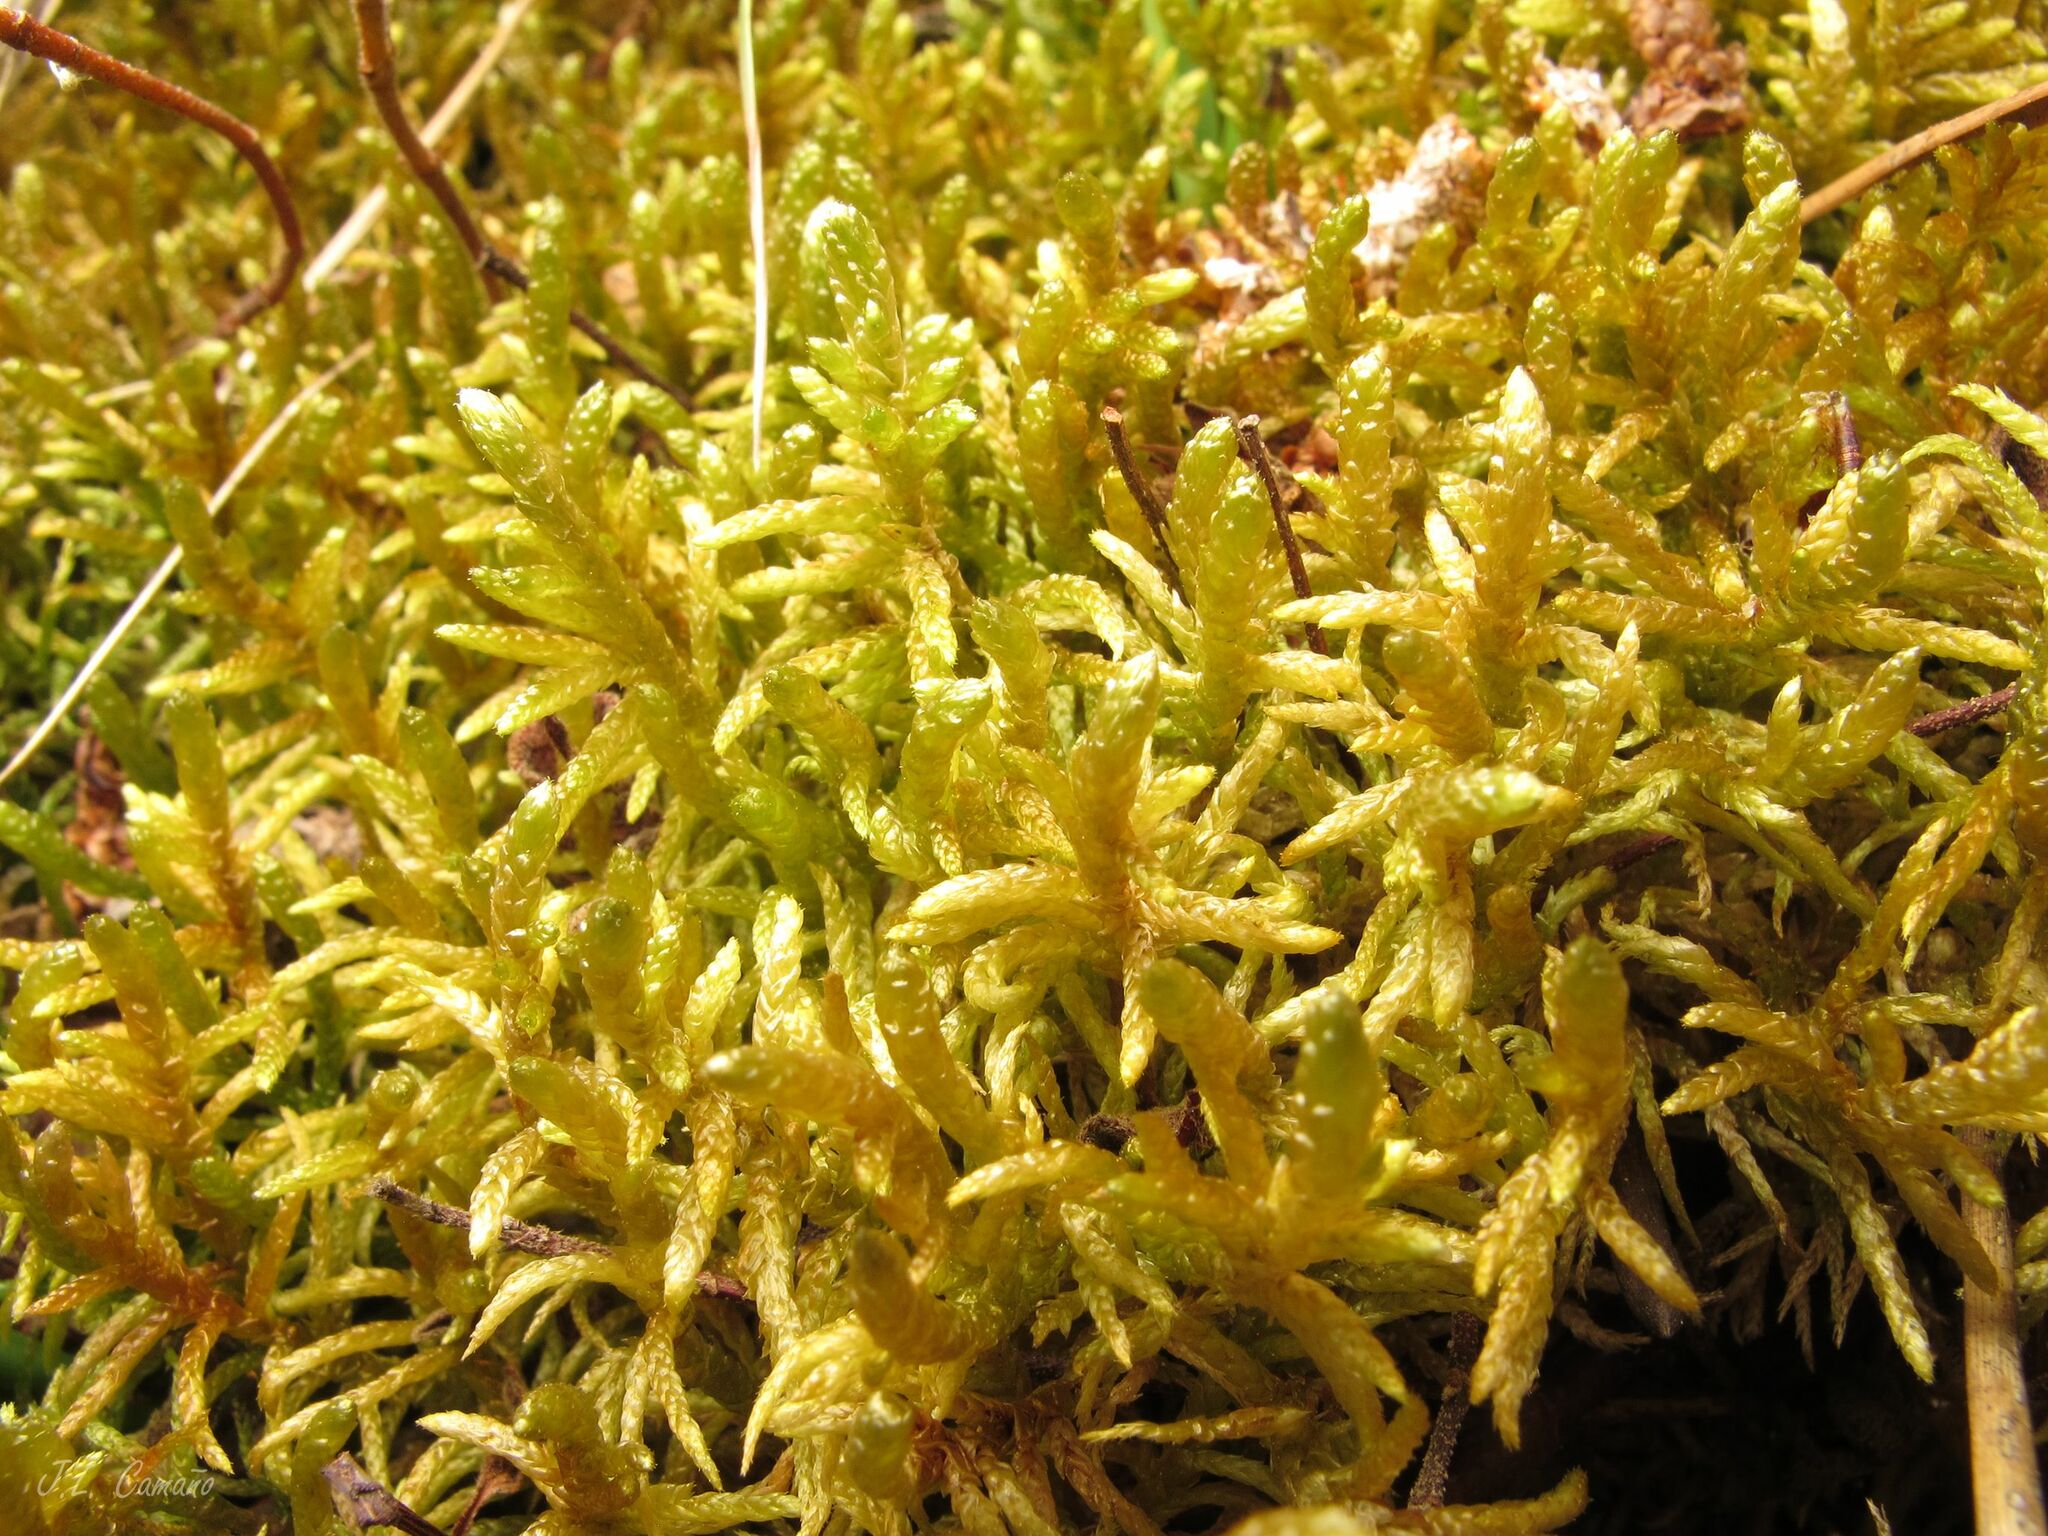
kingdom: Plantae
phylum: Bryophyta
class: Bryopsida
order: Hypnales
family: Hypnaceae
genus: Hypnum
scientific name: Hypnum cupressiforme
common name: Cypress-leaved plait-moss
